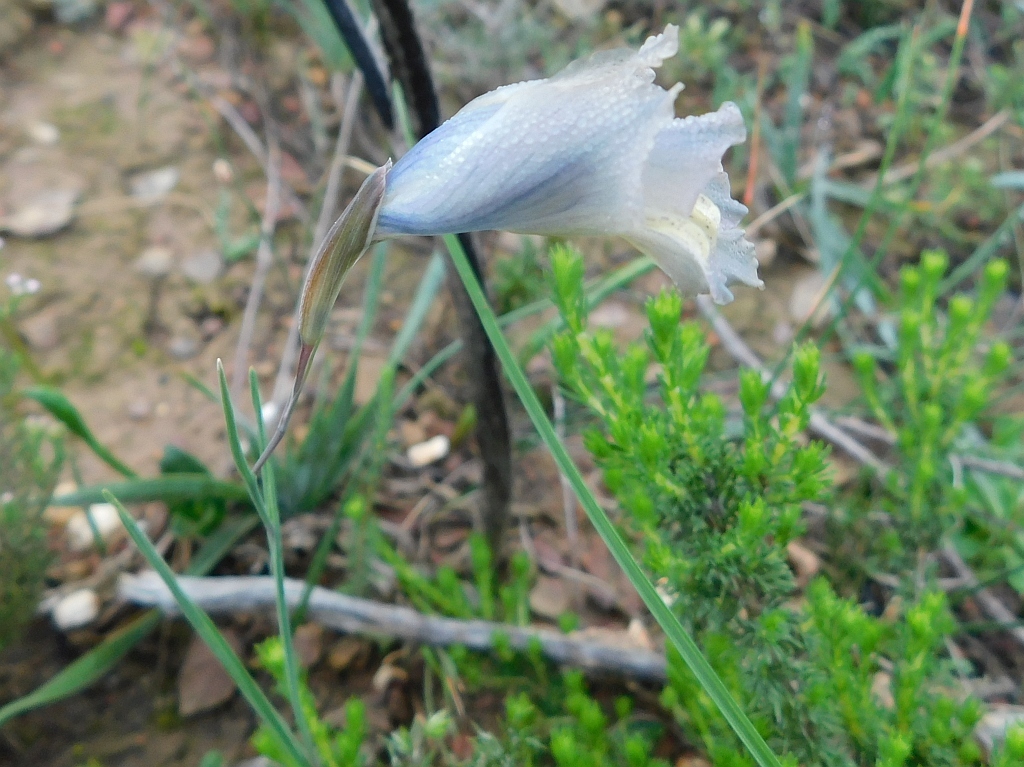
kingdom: Plantae
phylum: Tracheophyta
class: Liliopsida
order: Asparagales
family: Iridaceae
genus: Gladiolus
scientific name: Gladiolus gracilis
